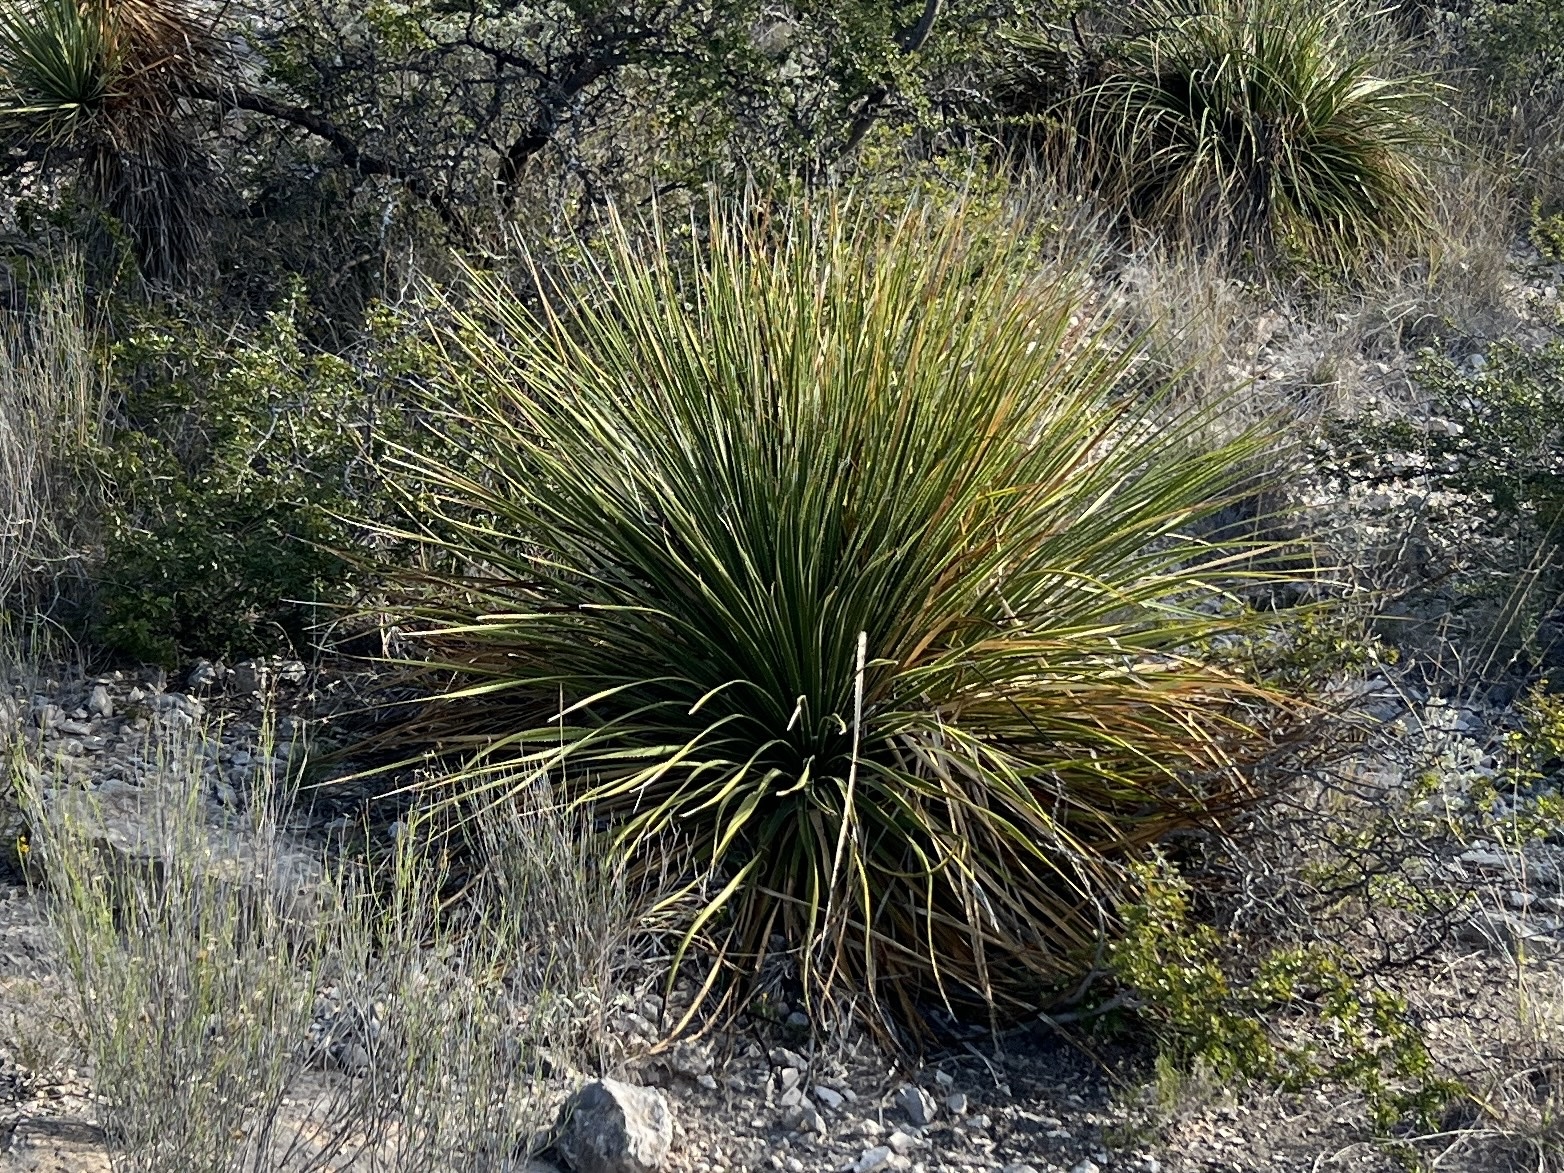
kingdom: Plantae
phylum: Tracheophyta
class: Liliopsida
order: Asparagales
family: Asparagaceae
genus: Dasylirion
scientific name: Dasylirion texanum
